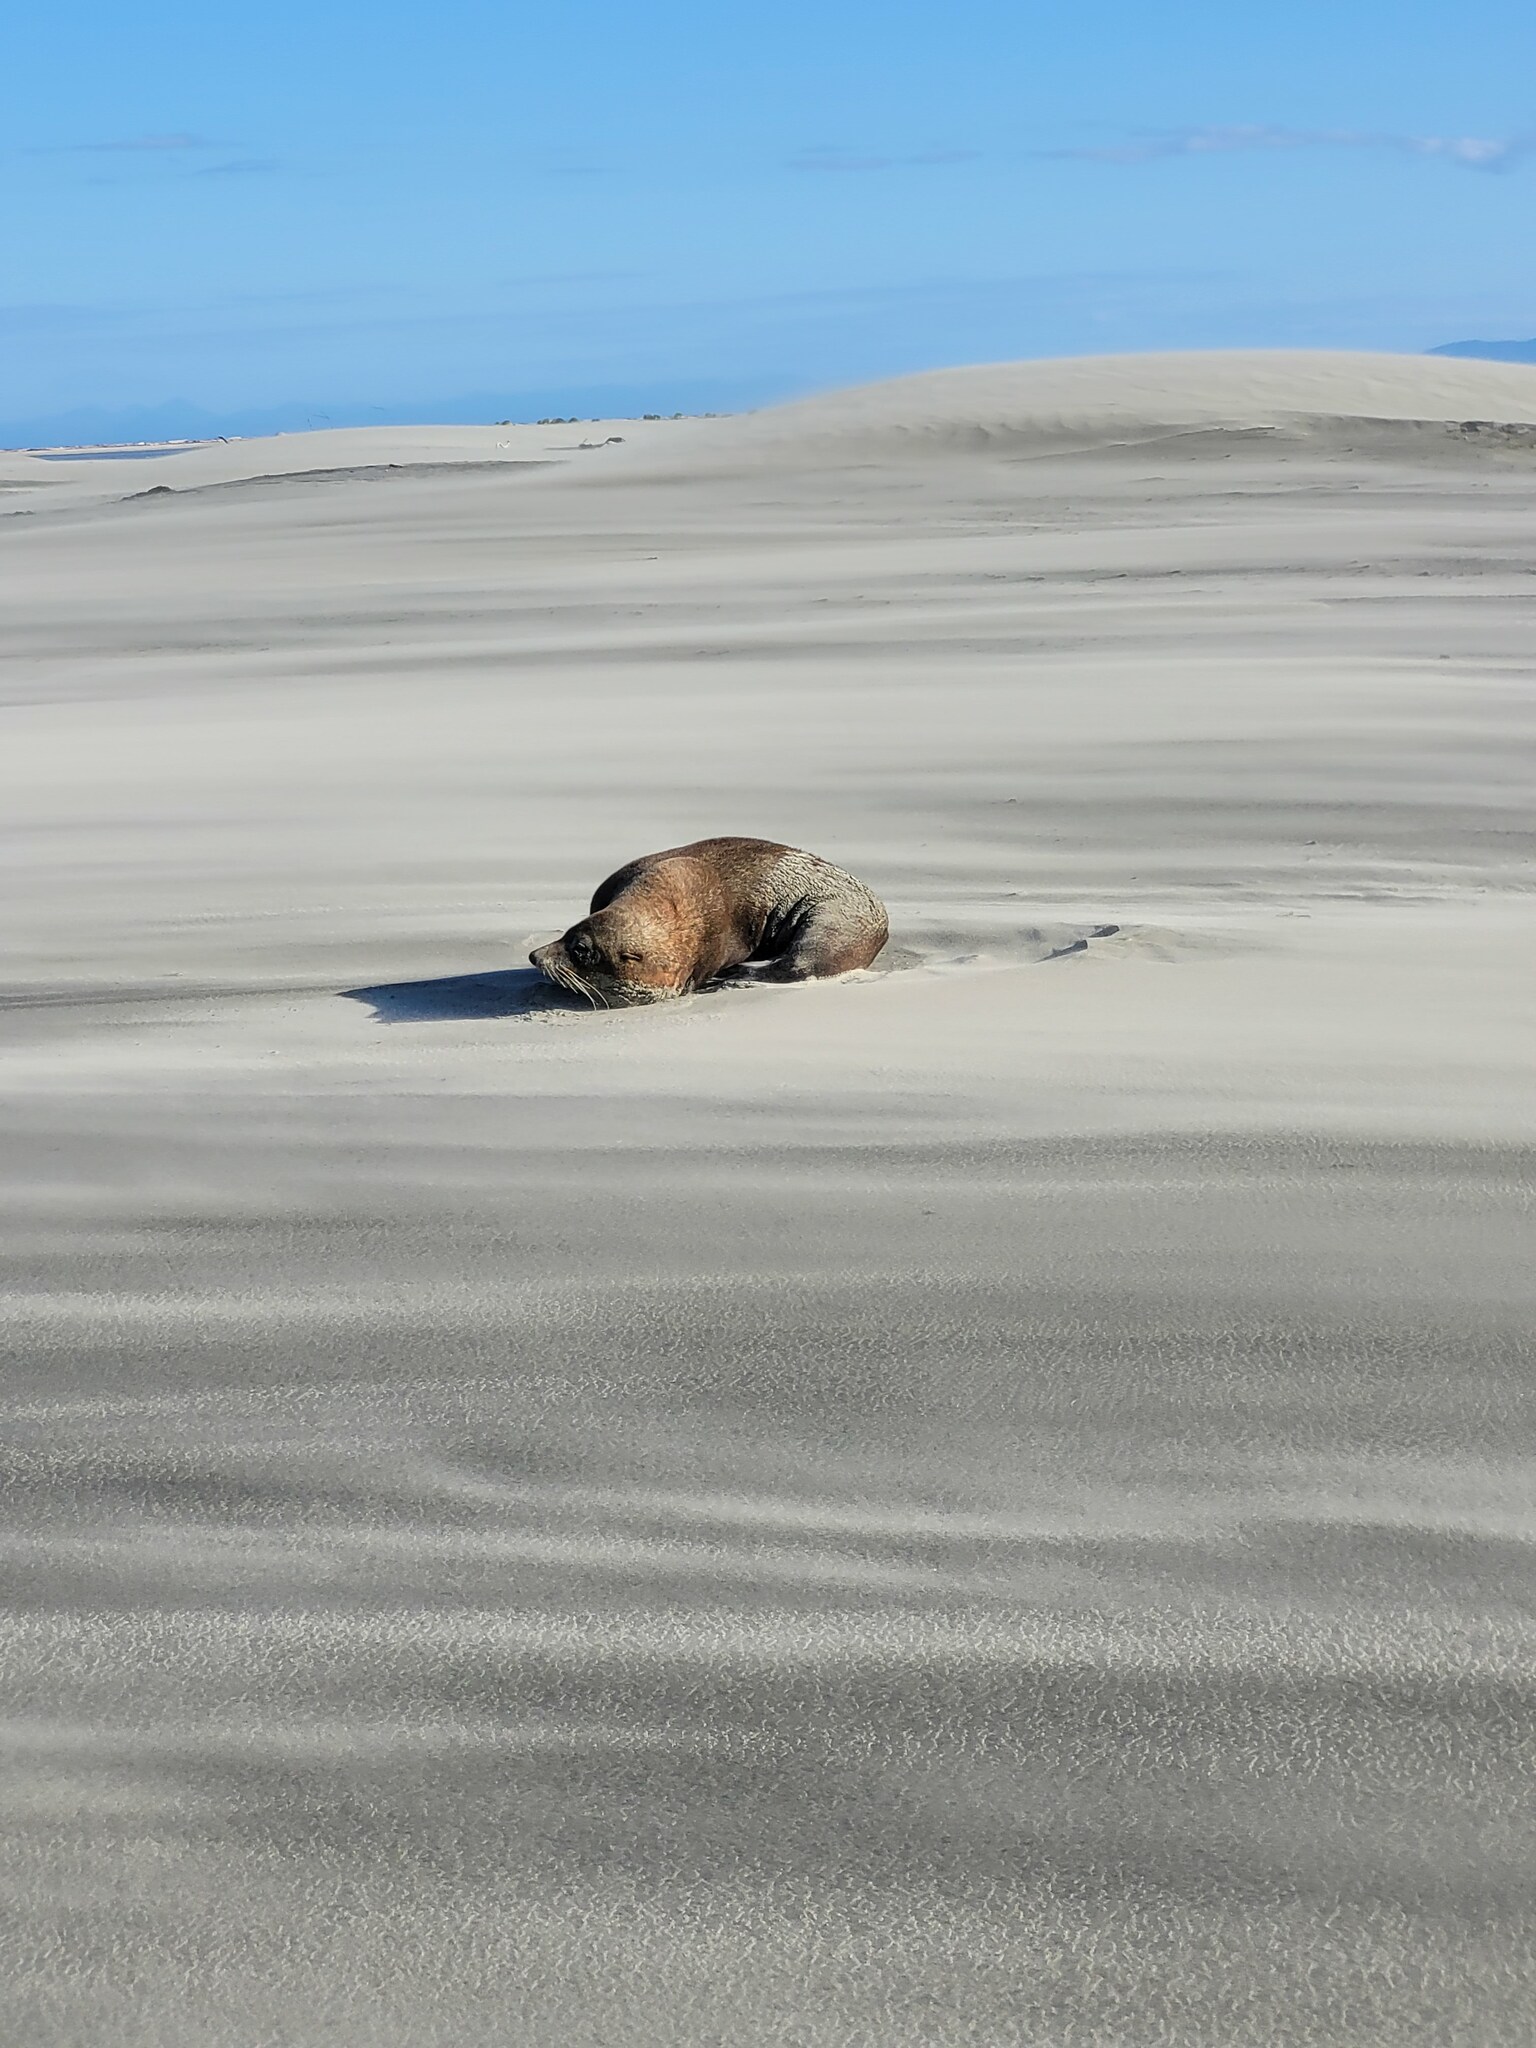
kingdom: Animalia
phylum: Chordata
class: Mammalia
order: Carnivora
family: Otariidae
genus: Arctocephalus
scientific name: Arctocephalus forsteri
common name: New zealand fur seal
